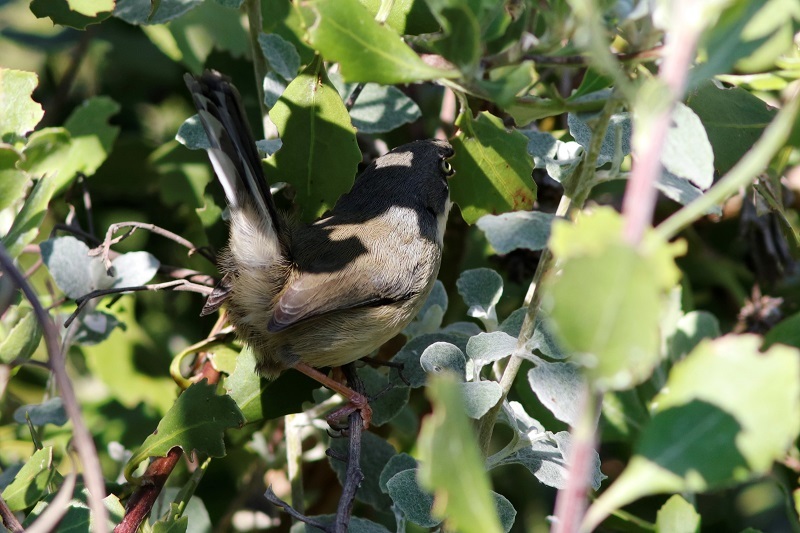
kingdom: Animalia
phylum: Chordata
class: Aves
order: Passeriformes
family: Cisticolidae
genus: Apalis
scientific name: Apalis thoracica
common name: Bar-throated apalis
